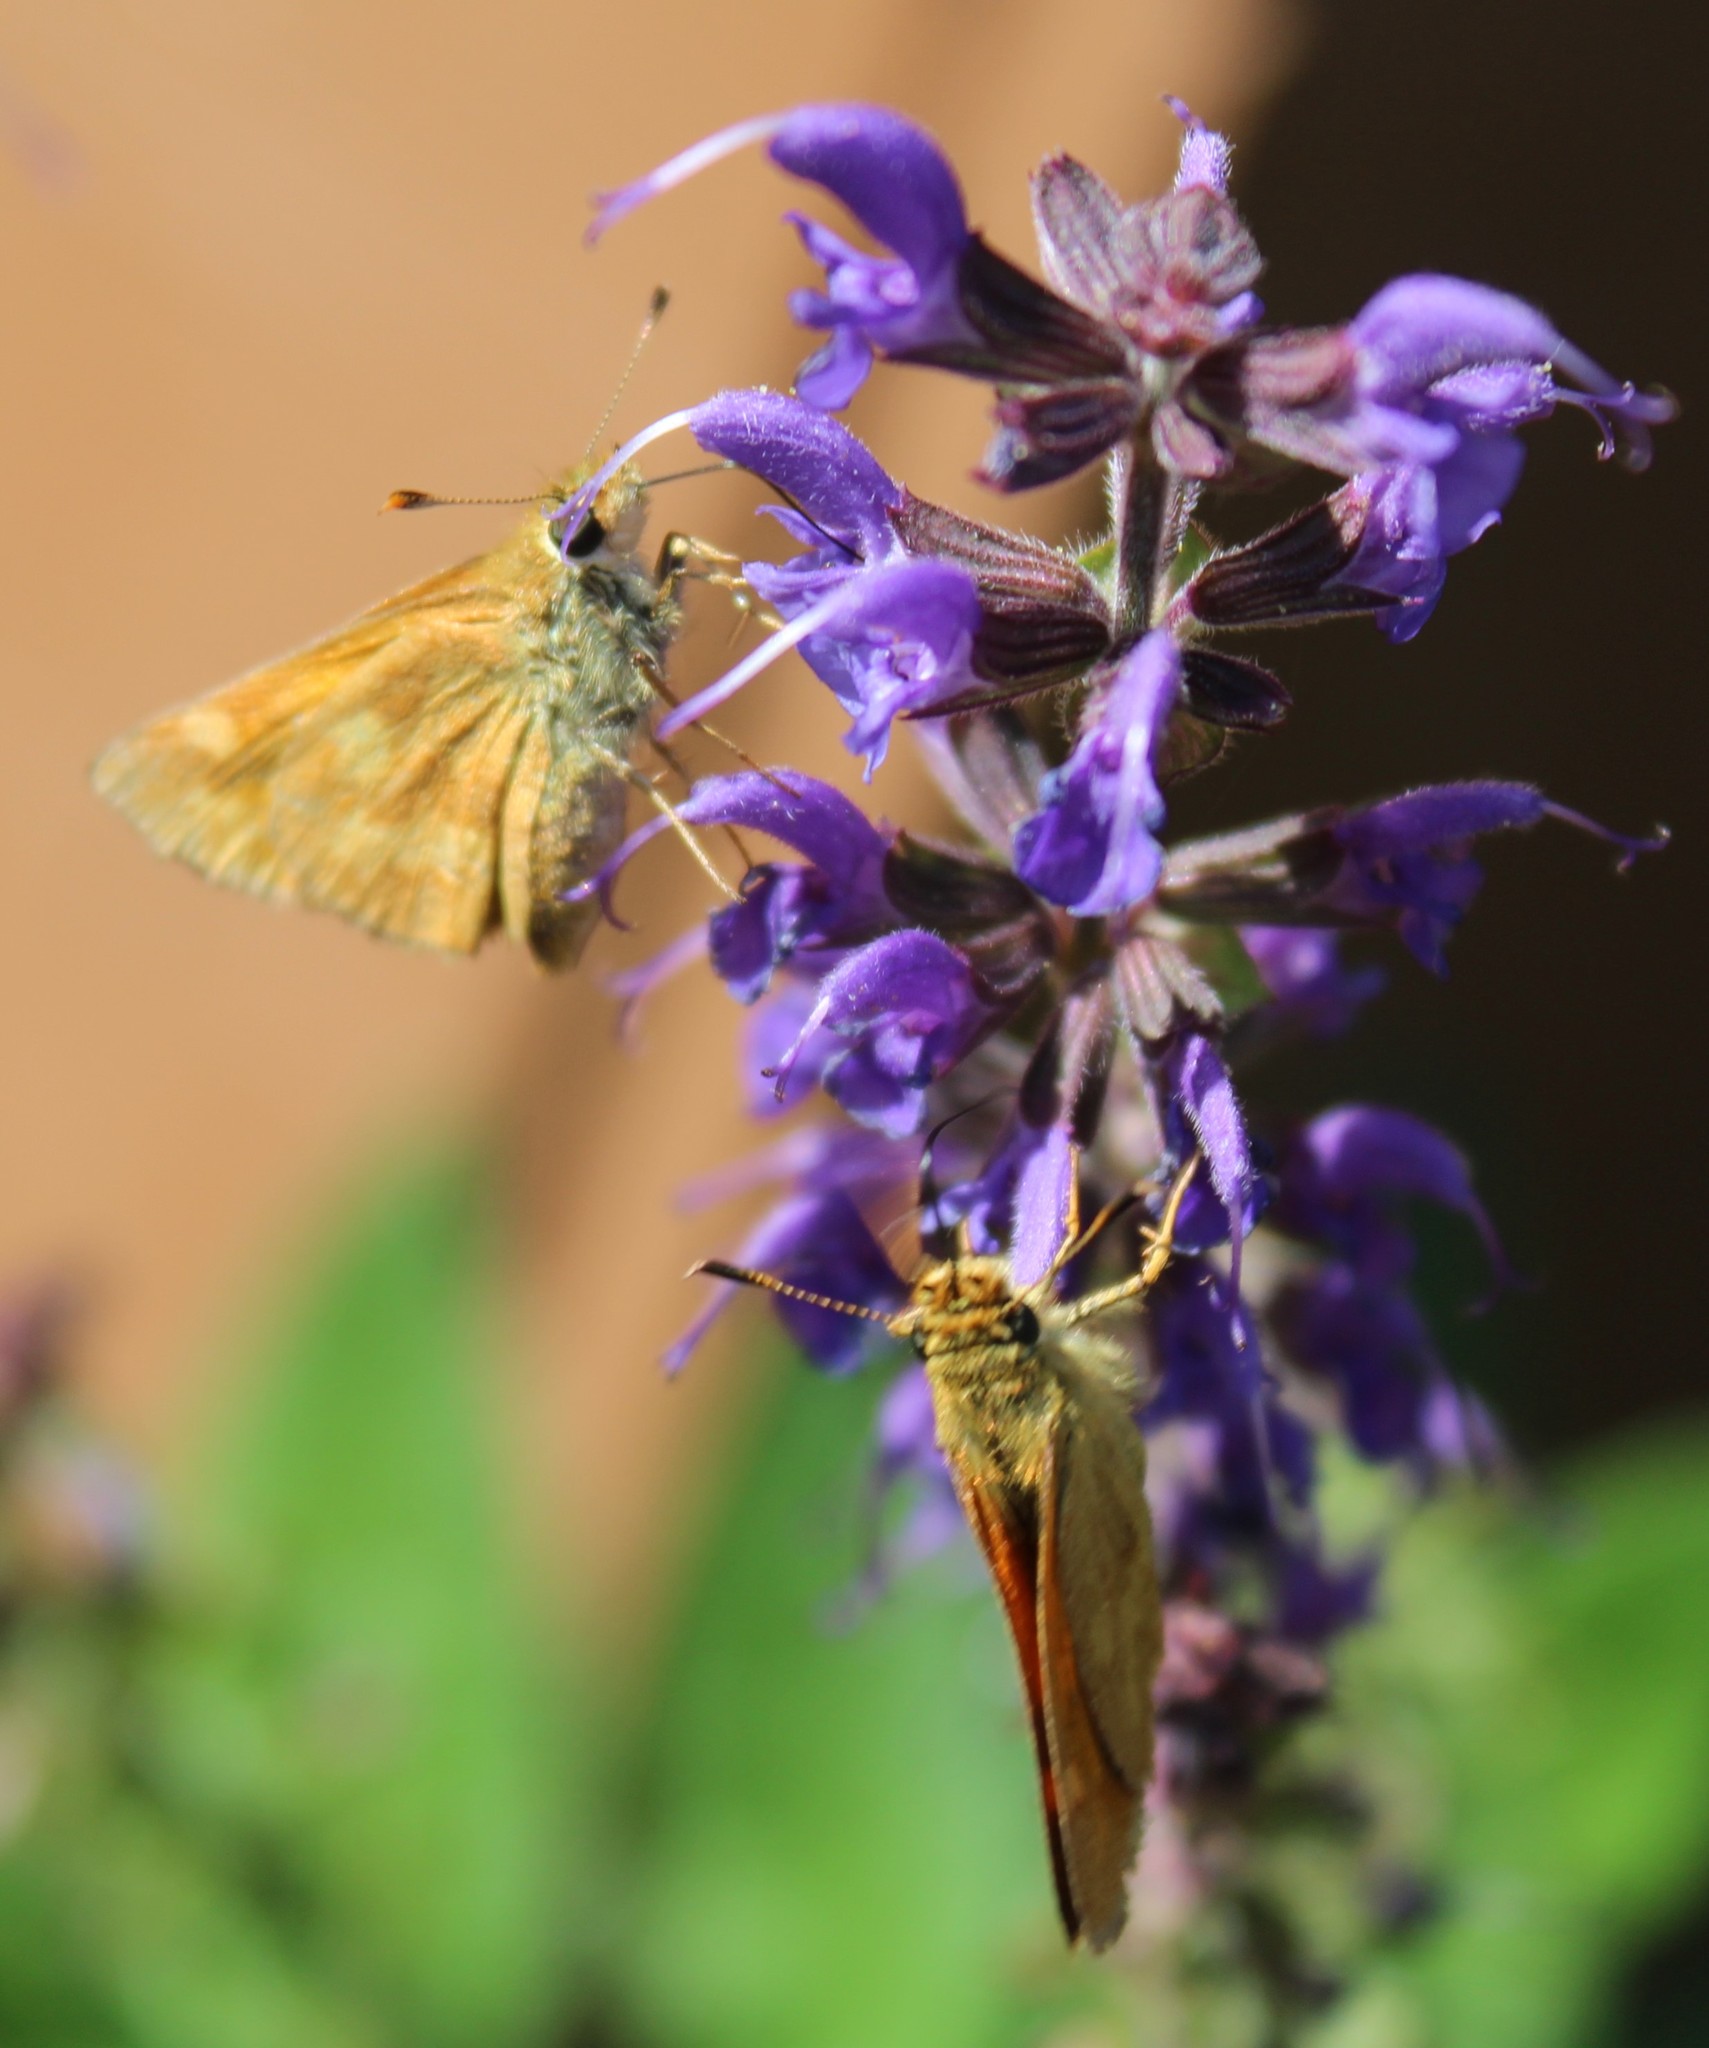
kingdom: Animalia
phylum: Arthropoda
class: Insecta
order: Lepidoptera
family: Hesperiidae
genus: Ochlodes
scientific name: Ochlodes sylvanoides
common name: Woodland skipper
